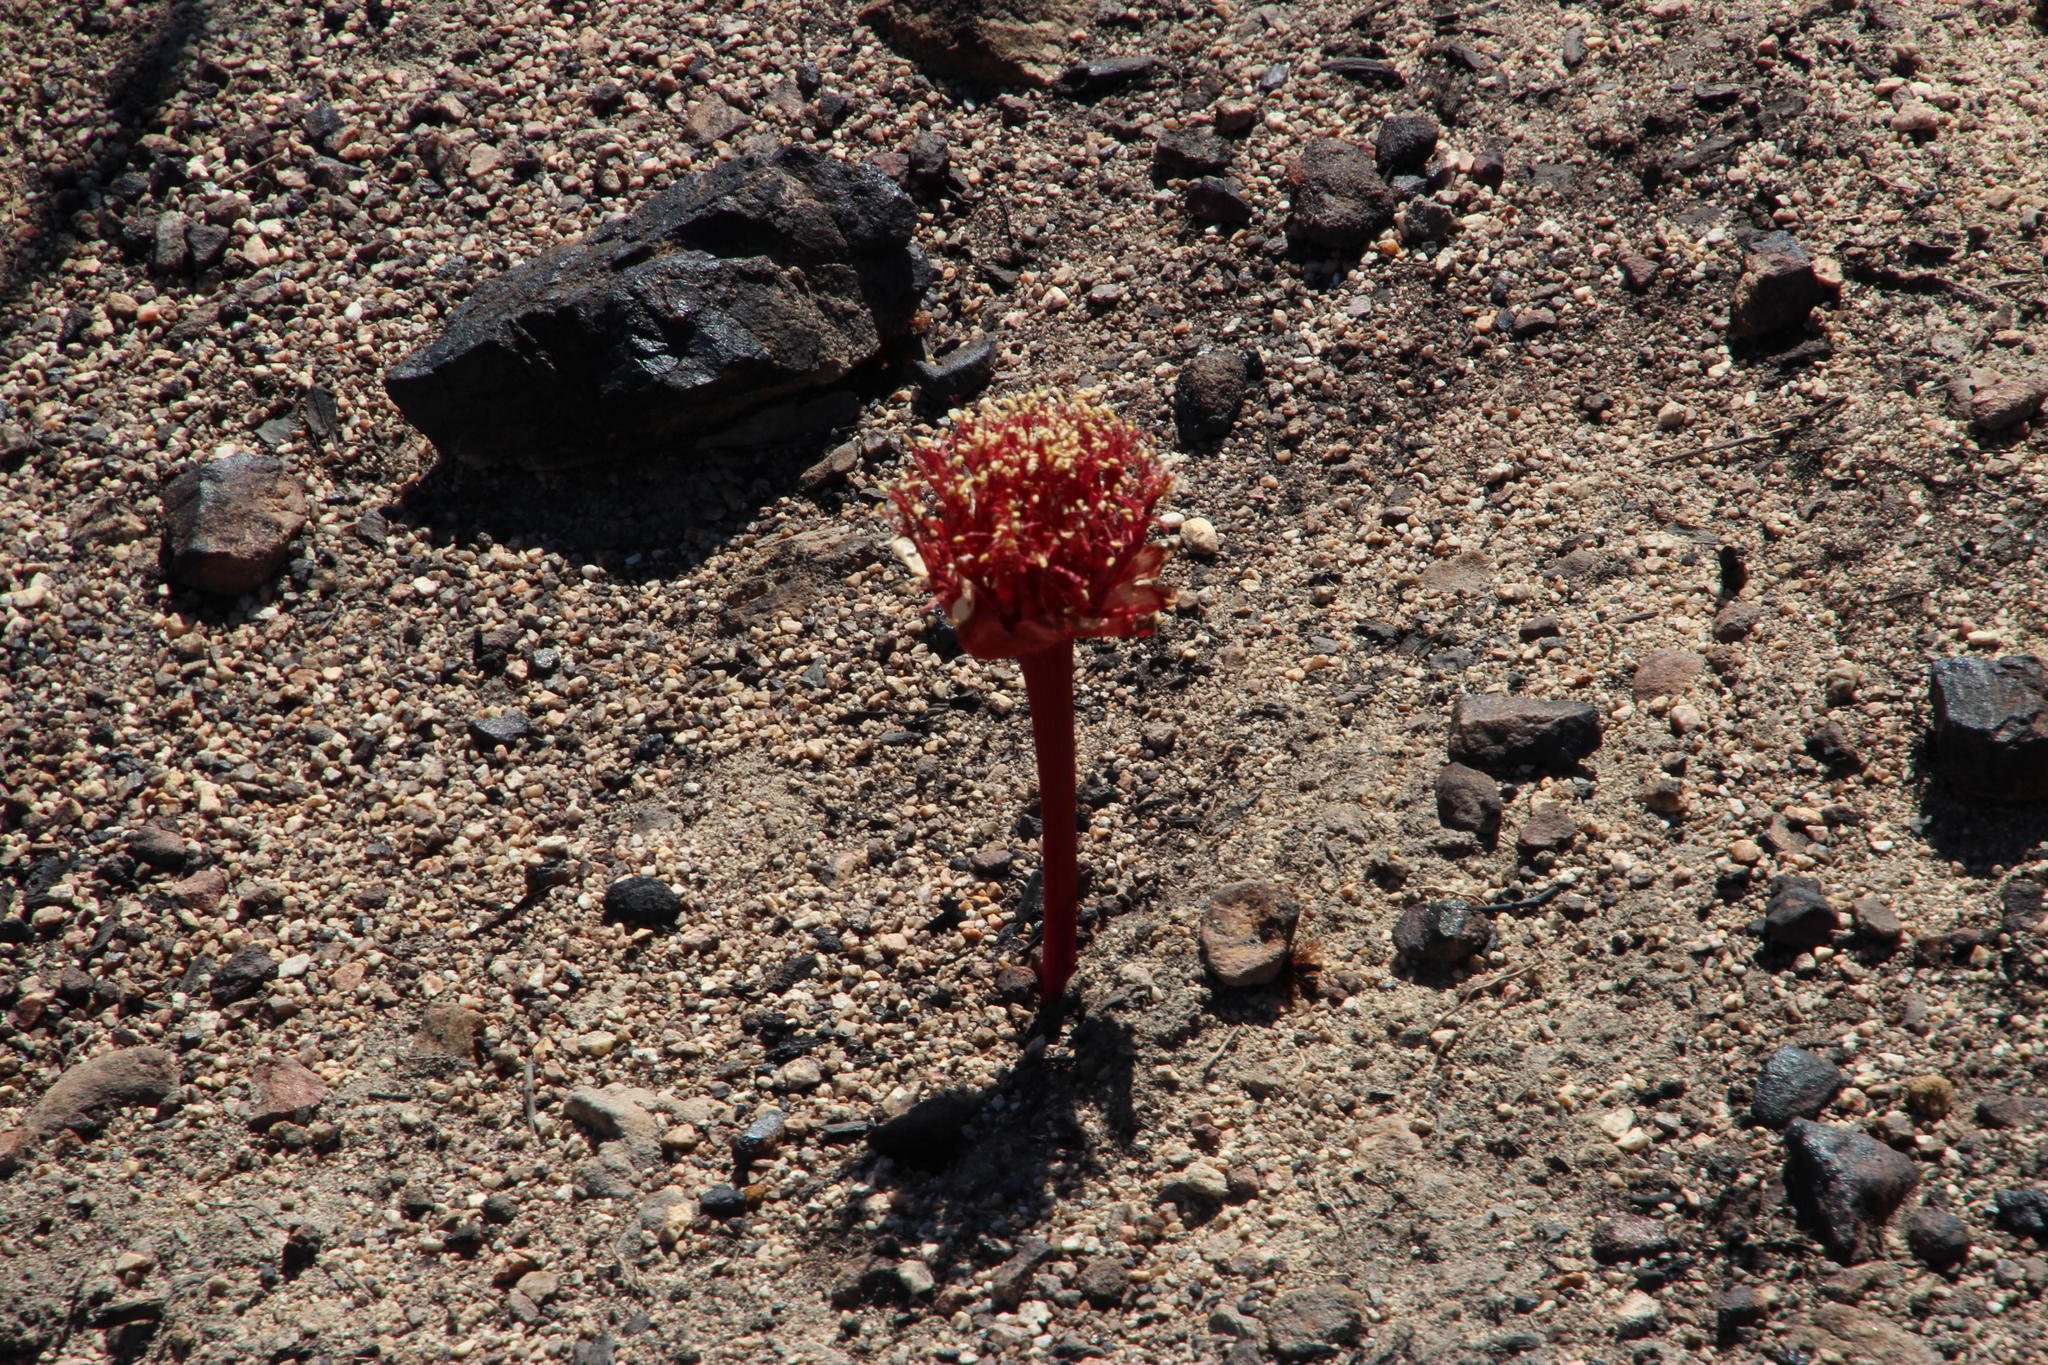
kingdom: Plantae
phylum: Tracheophyta
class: Liliopsida
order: Asparagales
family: Amaryllidaceae
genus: Haemanthus
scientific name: Haemanthus sanguineus
